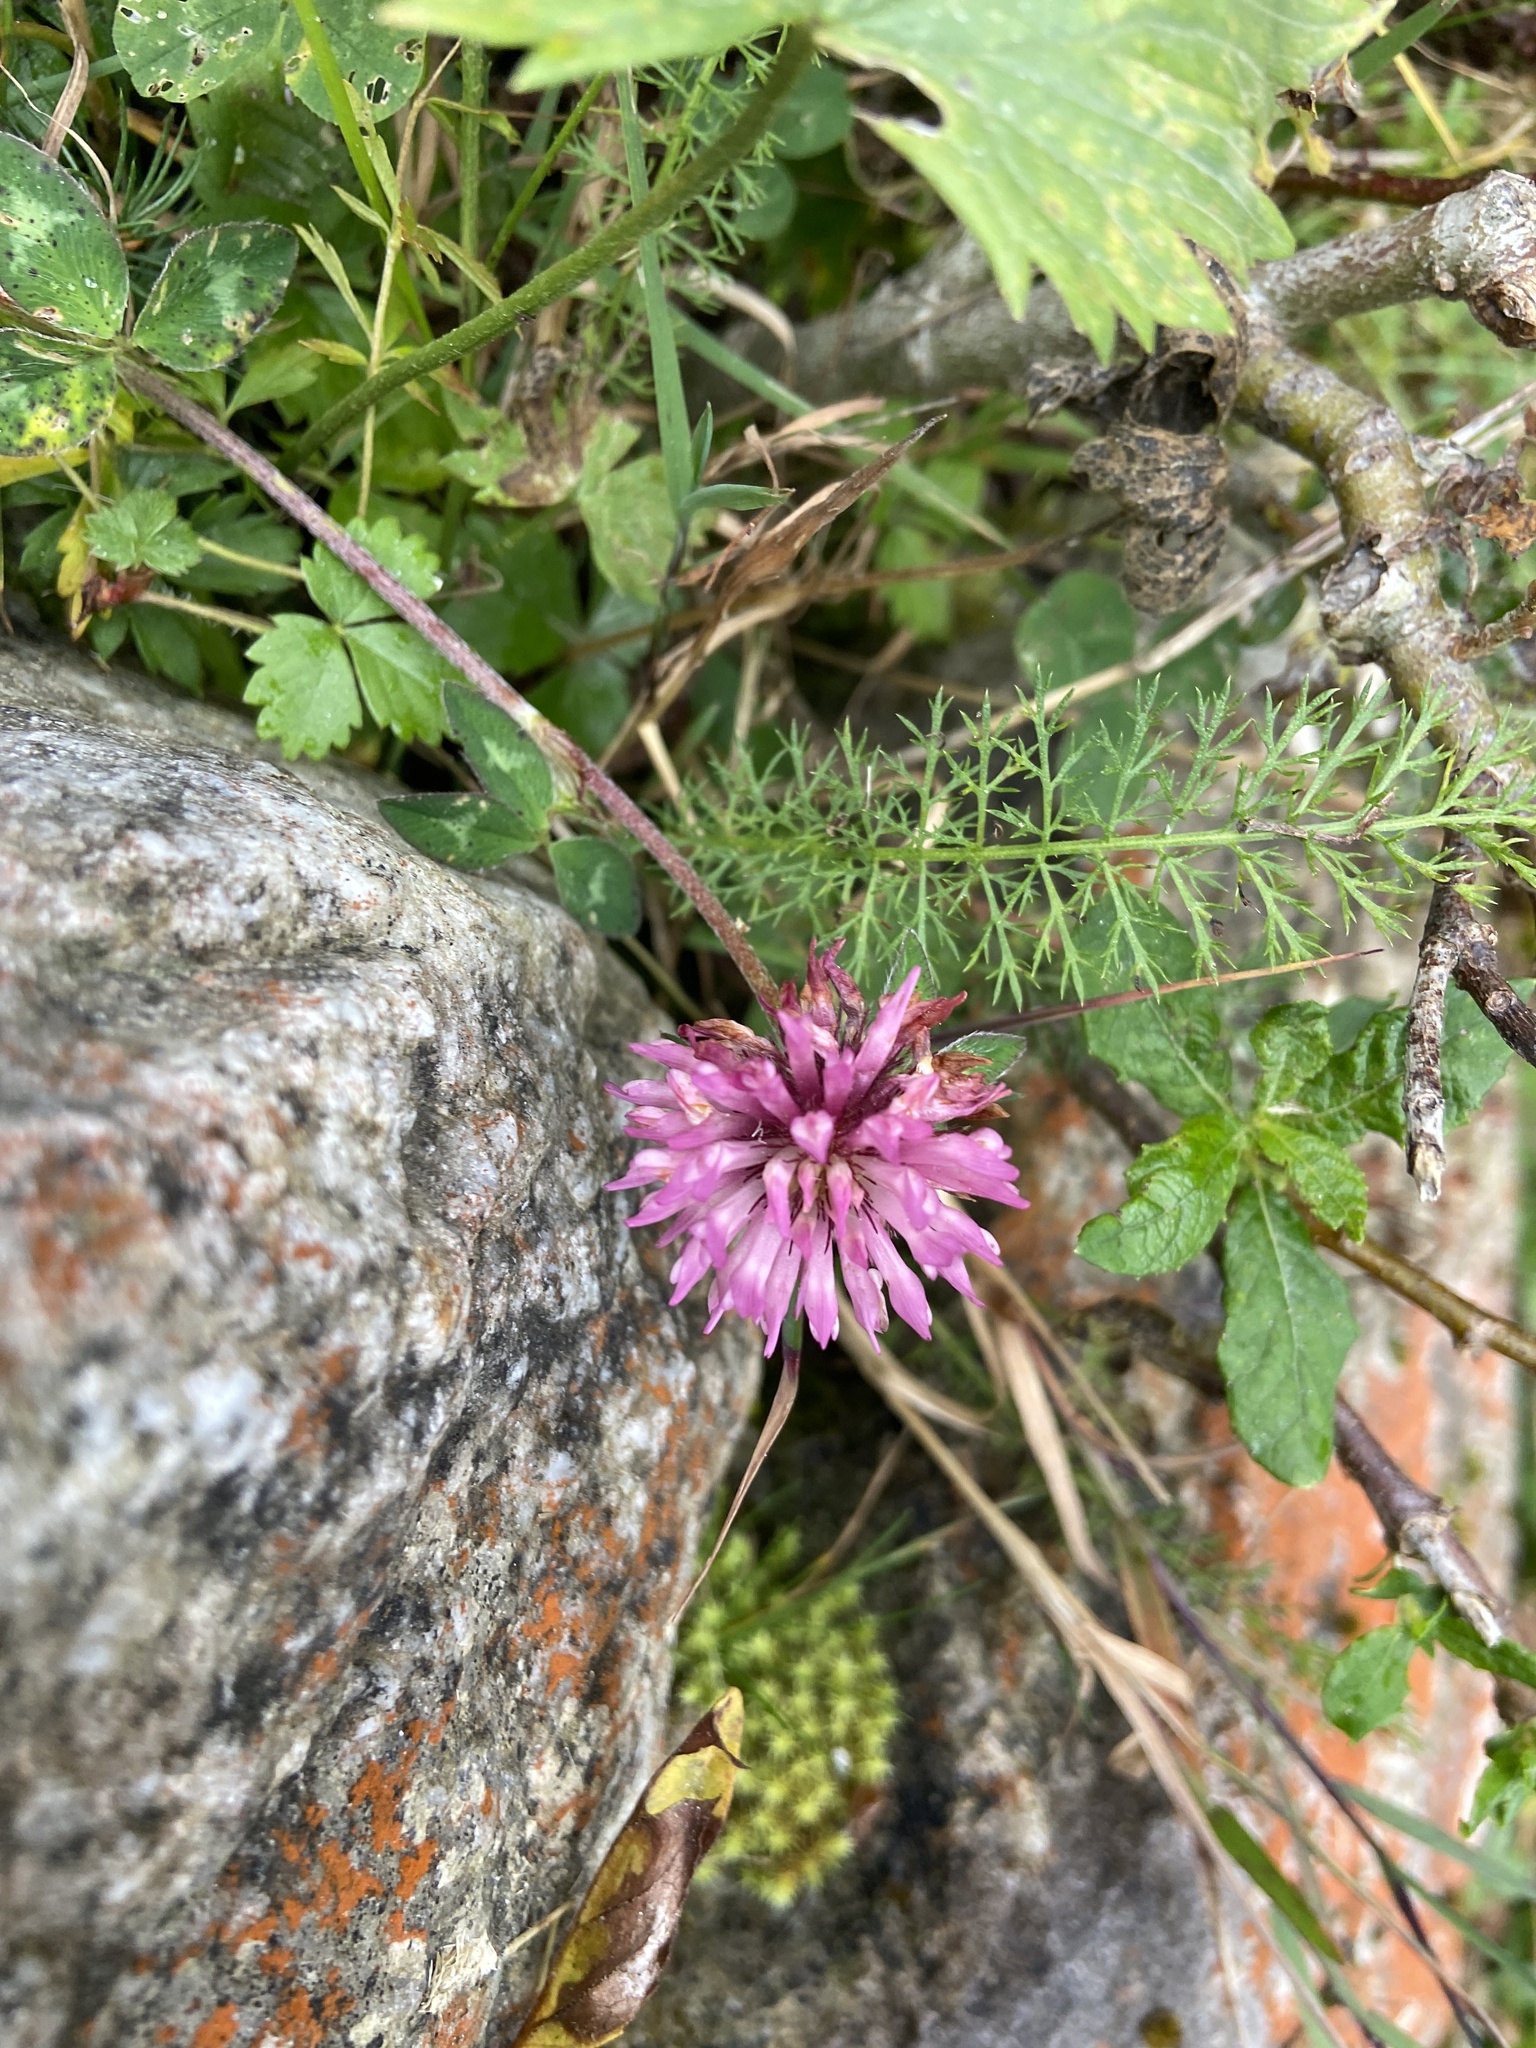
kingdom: Plantae
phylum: Tracheophyta
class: Magnoliopsida
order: Fabales
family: Fabaceae
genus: Trifolium
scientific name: Trifolium pratense
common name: Red clover
